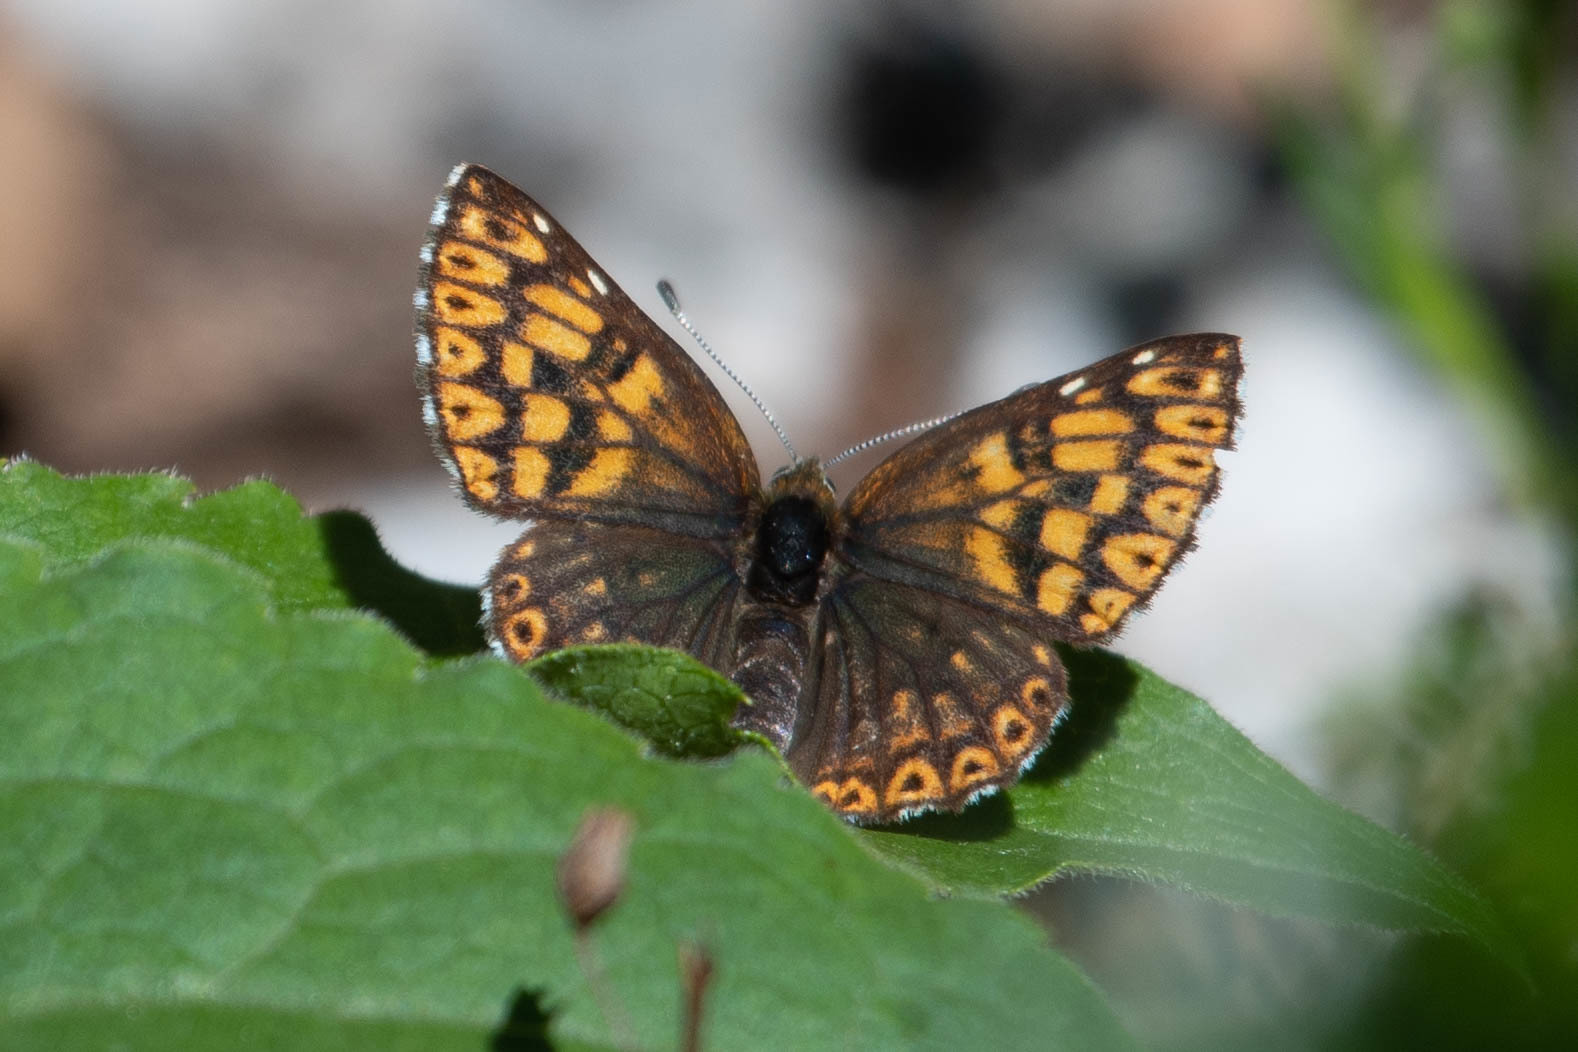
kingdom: Animalia
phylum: Arthropoda
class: Insecta
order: Lepidoptera
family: Riodinidae
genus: Hamearis
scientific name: Hamearis lucina
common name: Duke of burgundy fritillary
